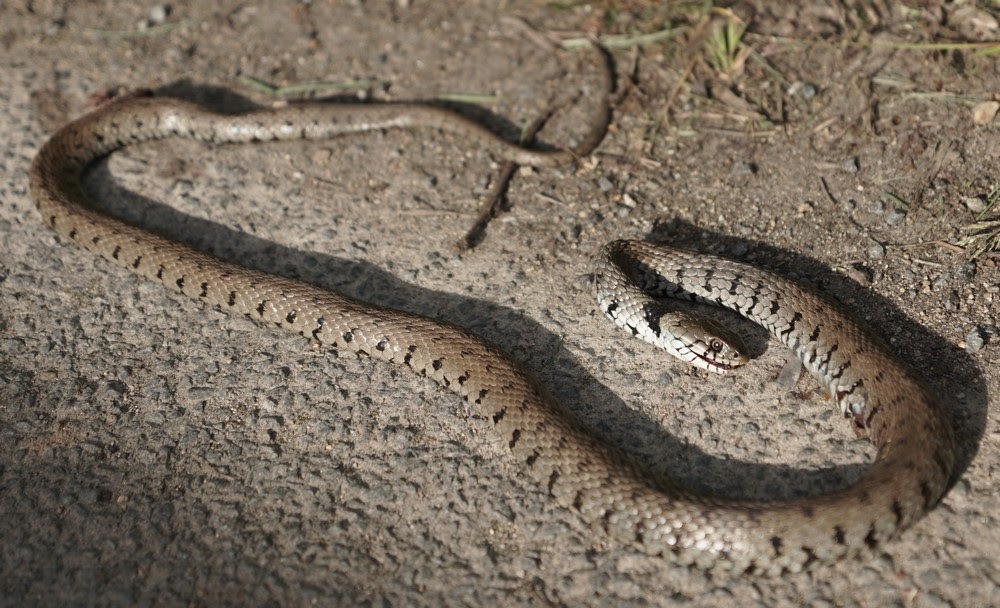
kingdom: Animalia
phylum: Chordata
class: Squamata
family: Colubridae
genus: Natrix
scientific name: Natrix helvetica
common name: Banded grass snake
